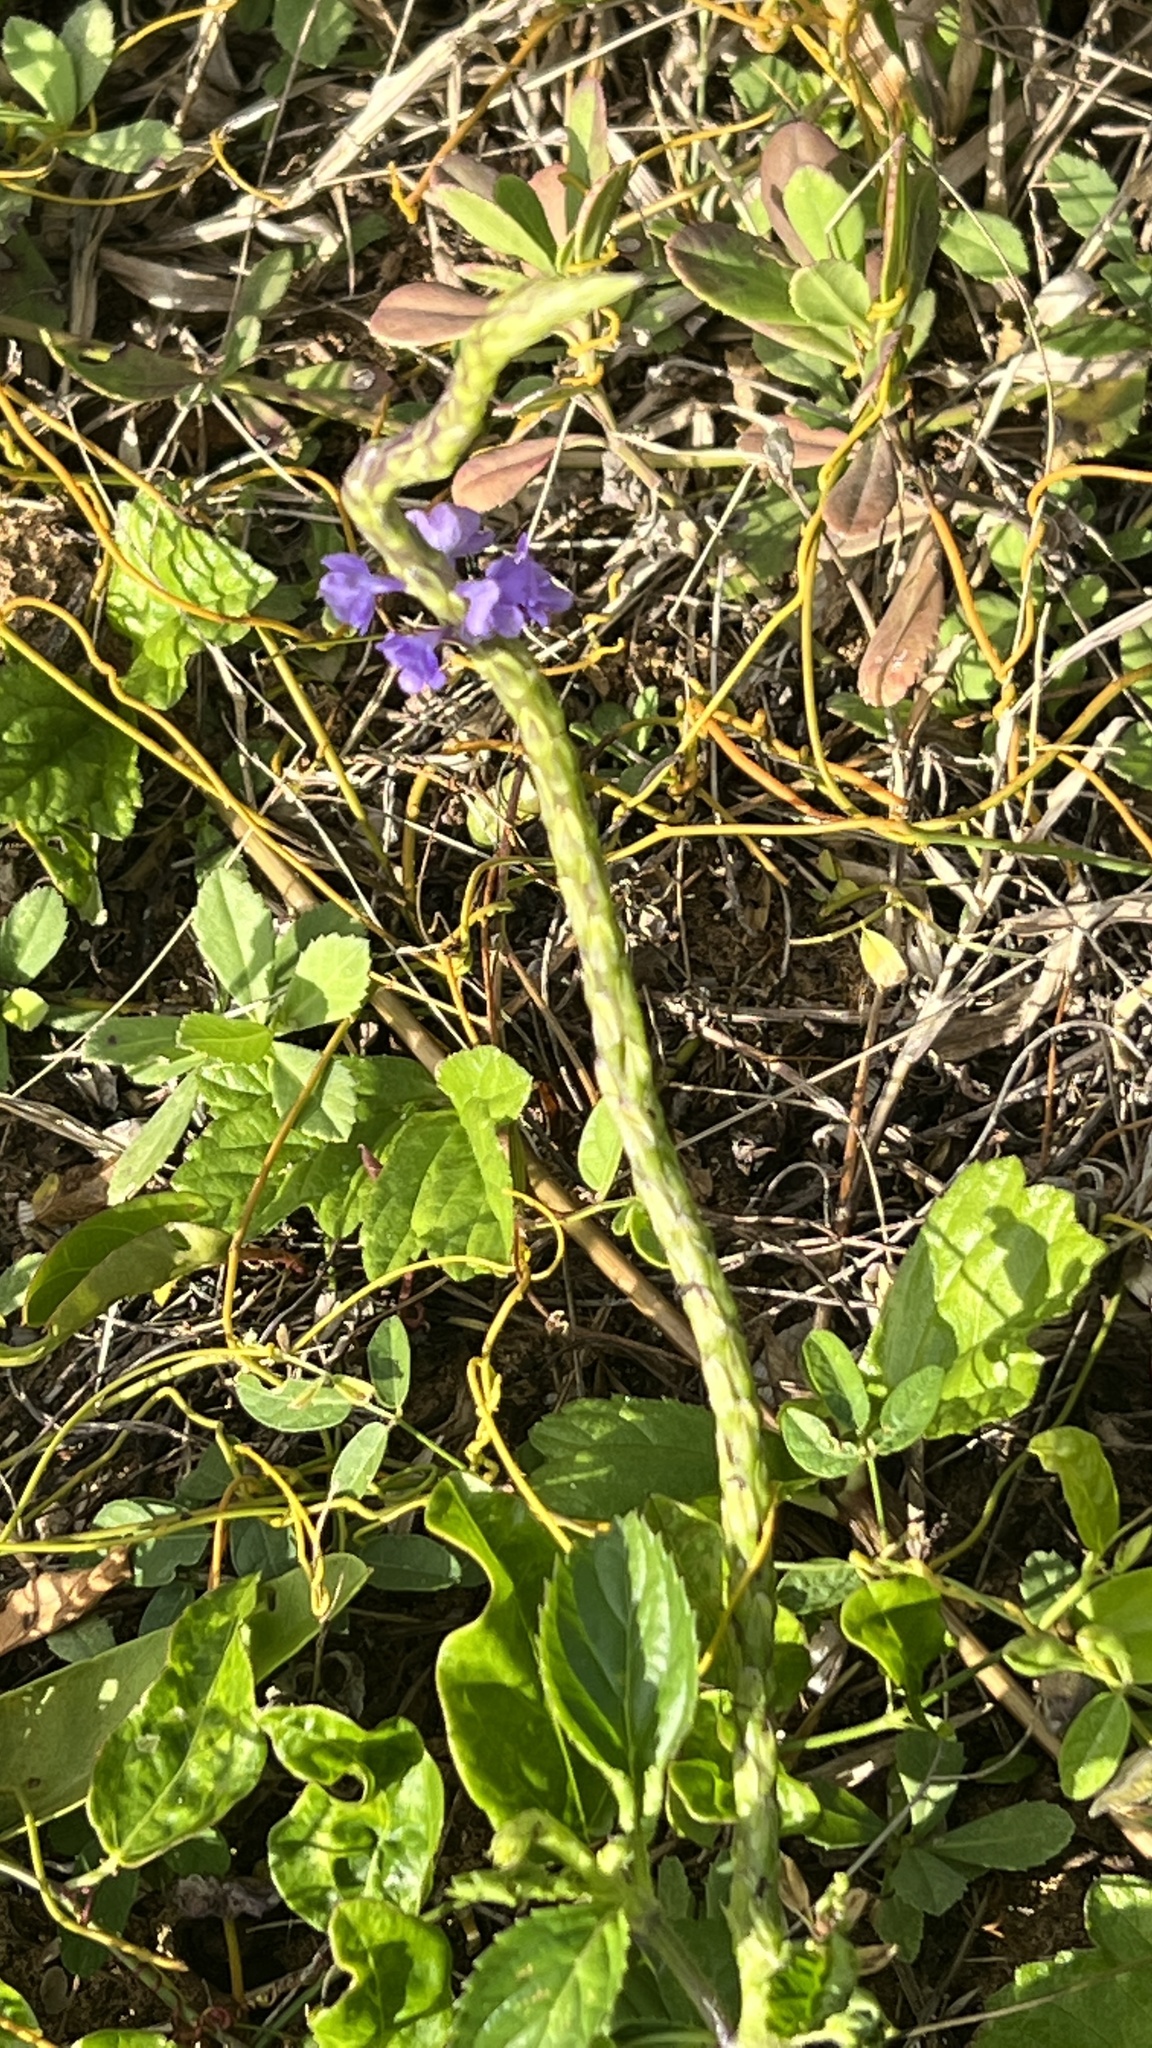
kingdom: Plantae
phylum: Tracheophyta
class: Magnoliopsida
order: Lamiales
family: Verbenaceae
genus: Stachytarpheta
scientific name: Stachytarpheta jamaicensis
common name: Light-blue snakeweed
